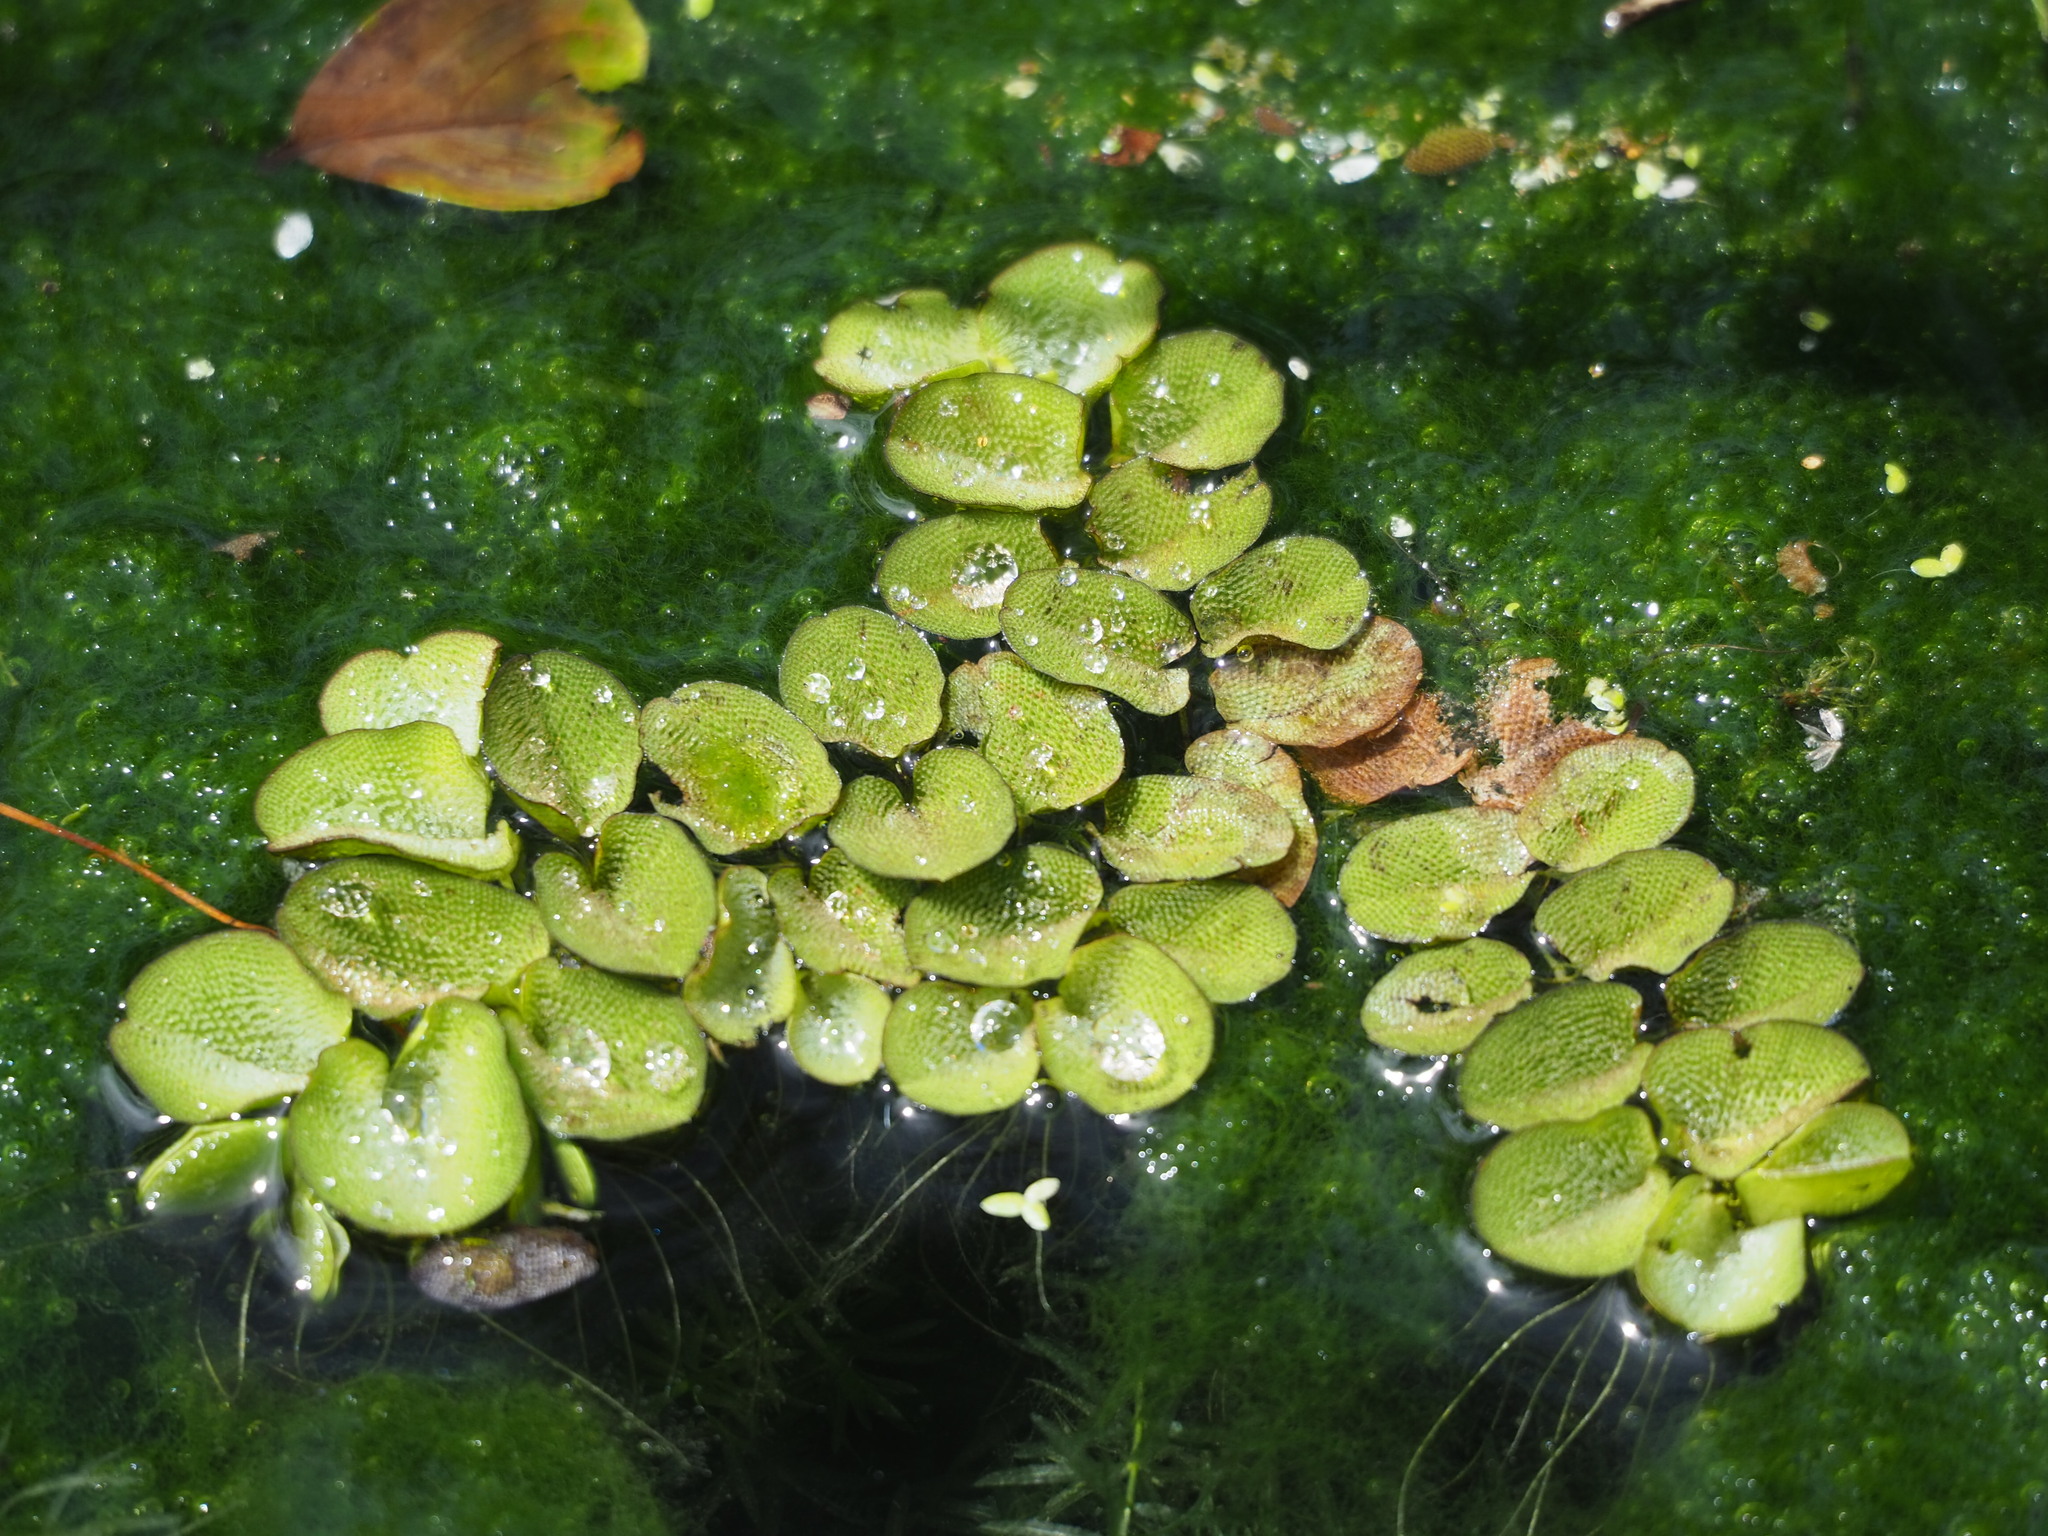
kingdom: Plantae
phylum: Tracheophyta
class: Polypodiopsida
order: Salviniales
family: Salviniaceae
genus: Salvinia
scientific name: Salvinia molesta
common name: Kariba weed
